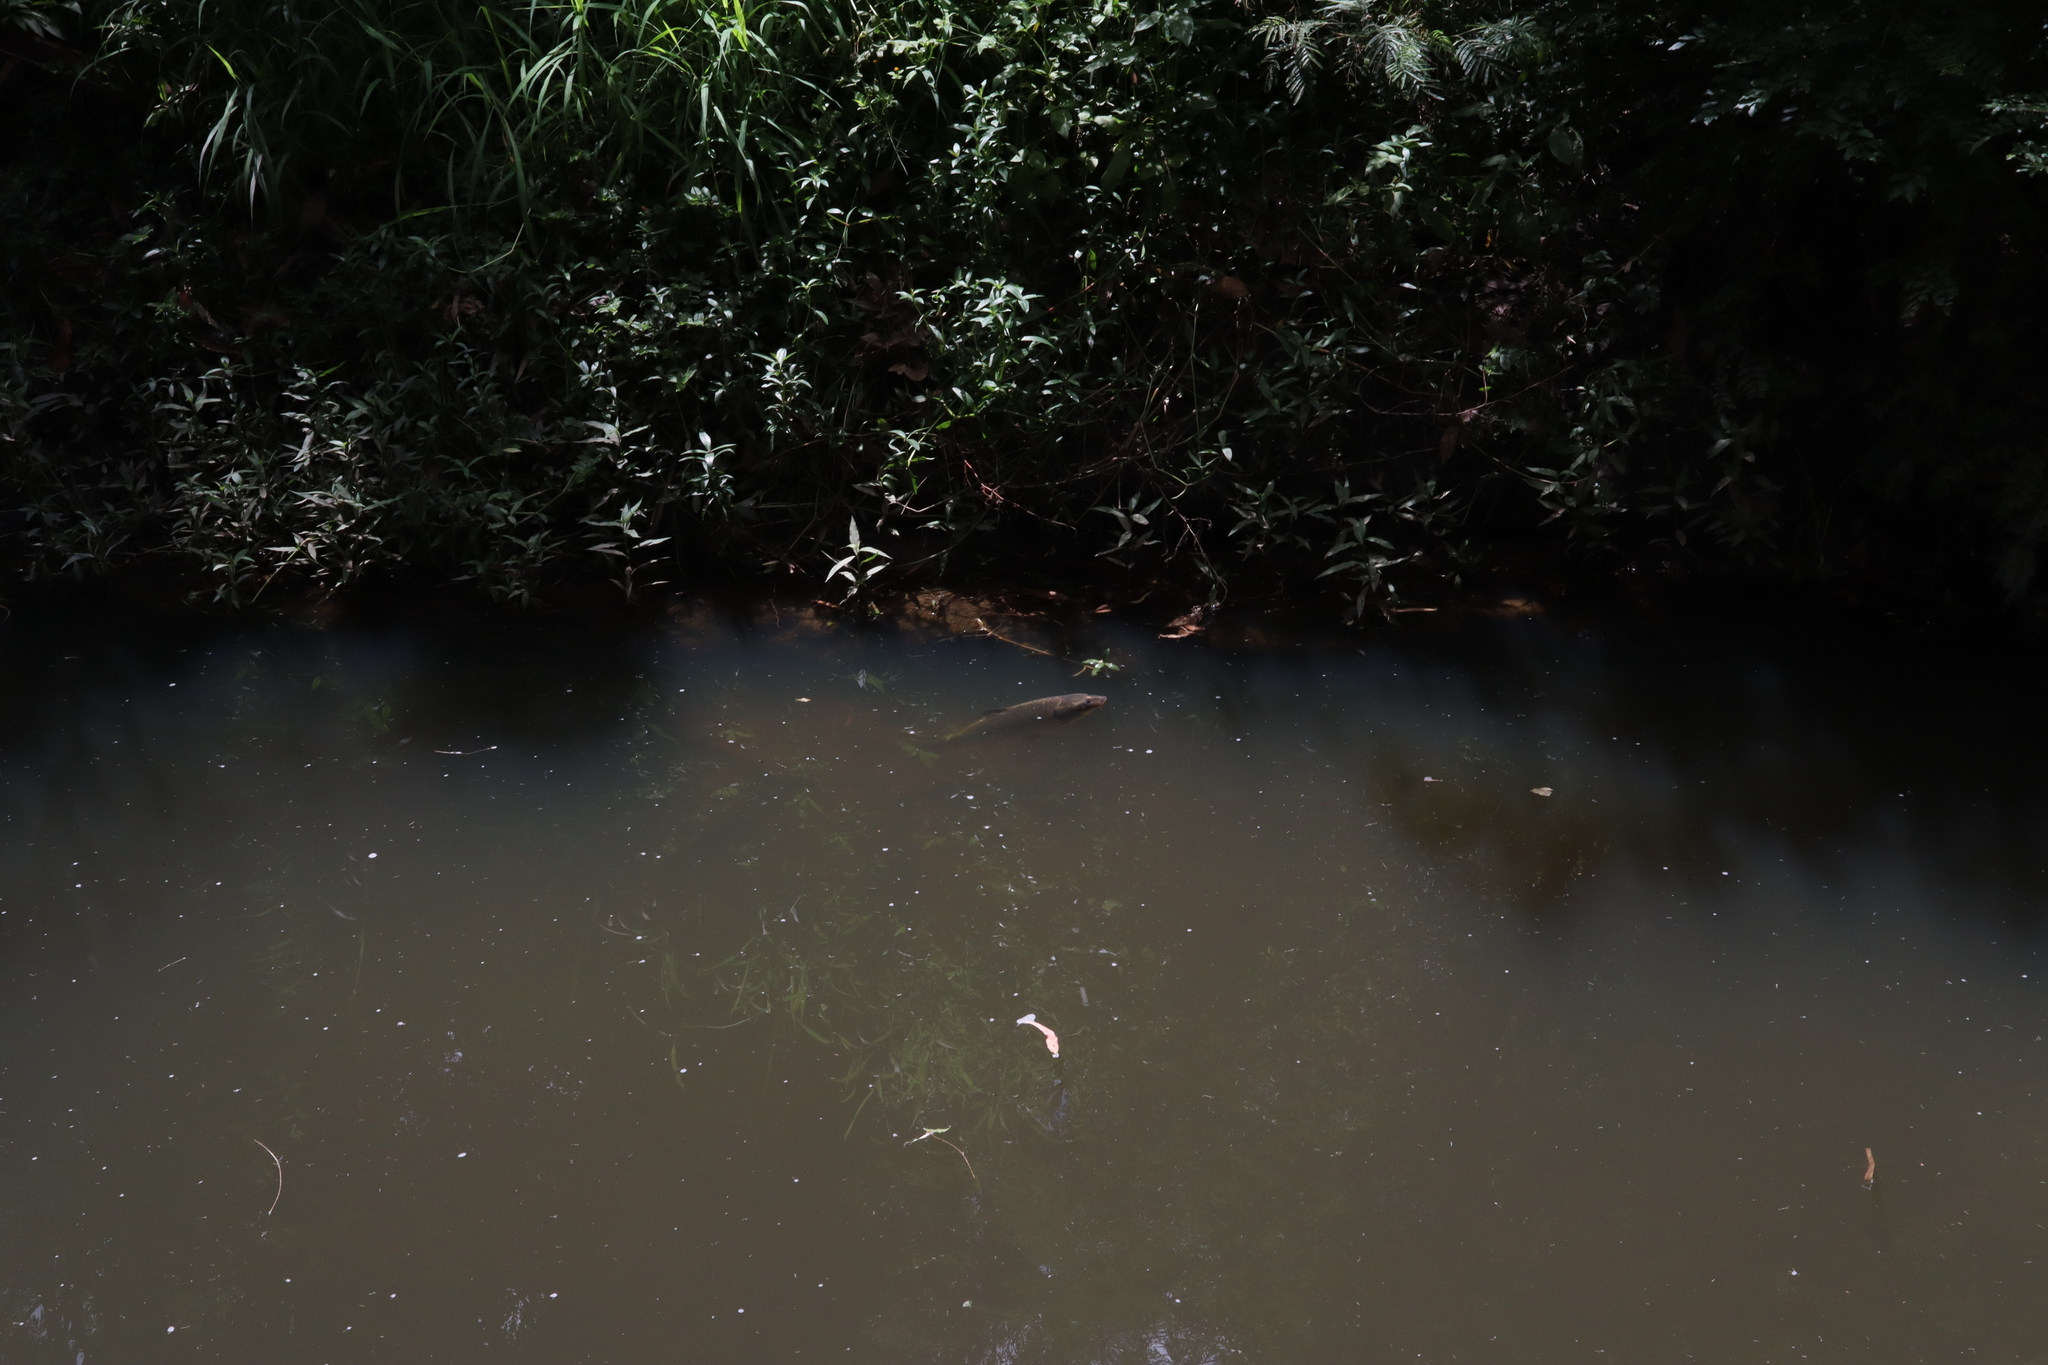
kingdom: Animalia
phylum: Chordata
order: Cypriniformes
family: Cyprinidae
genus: Cyprinus
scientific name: Cyprinus carpio
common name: Common carp
